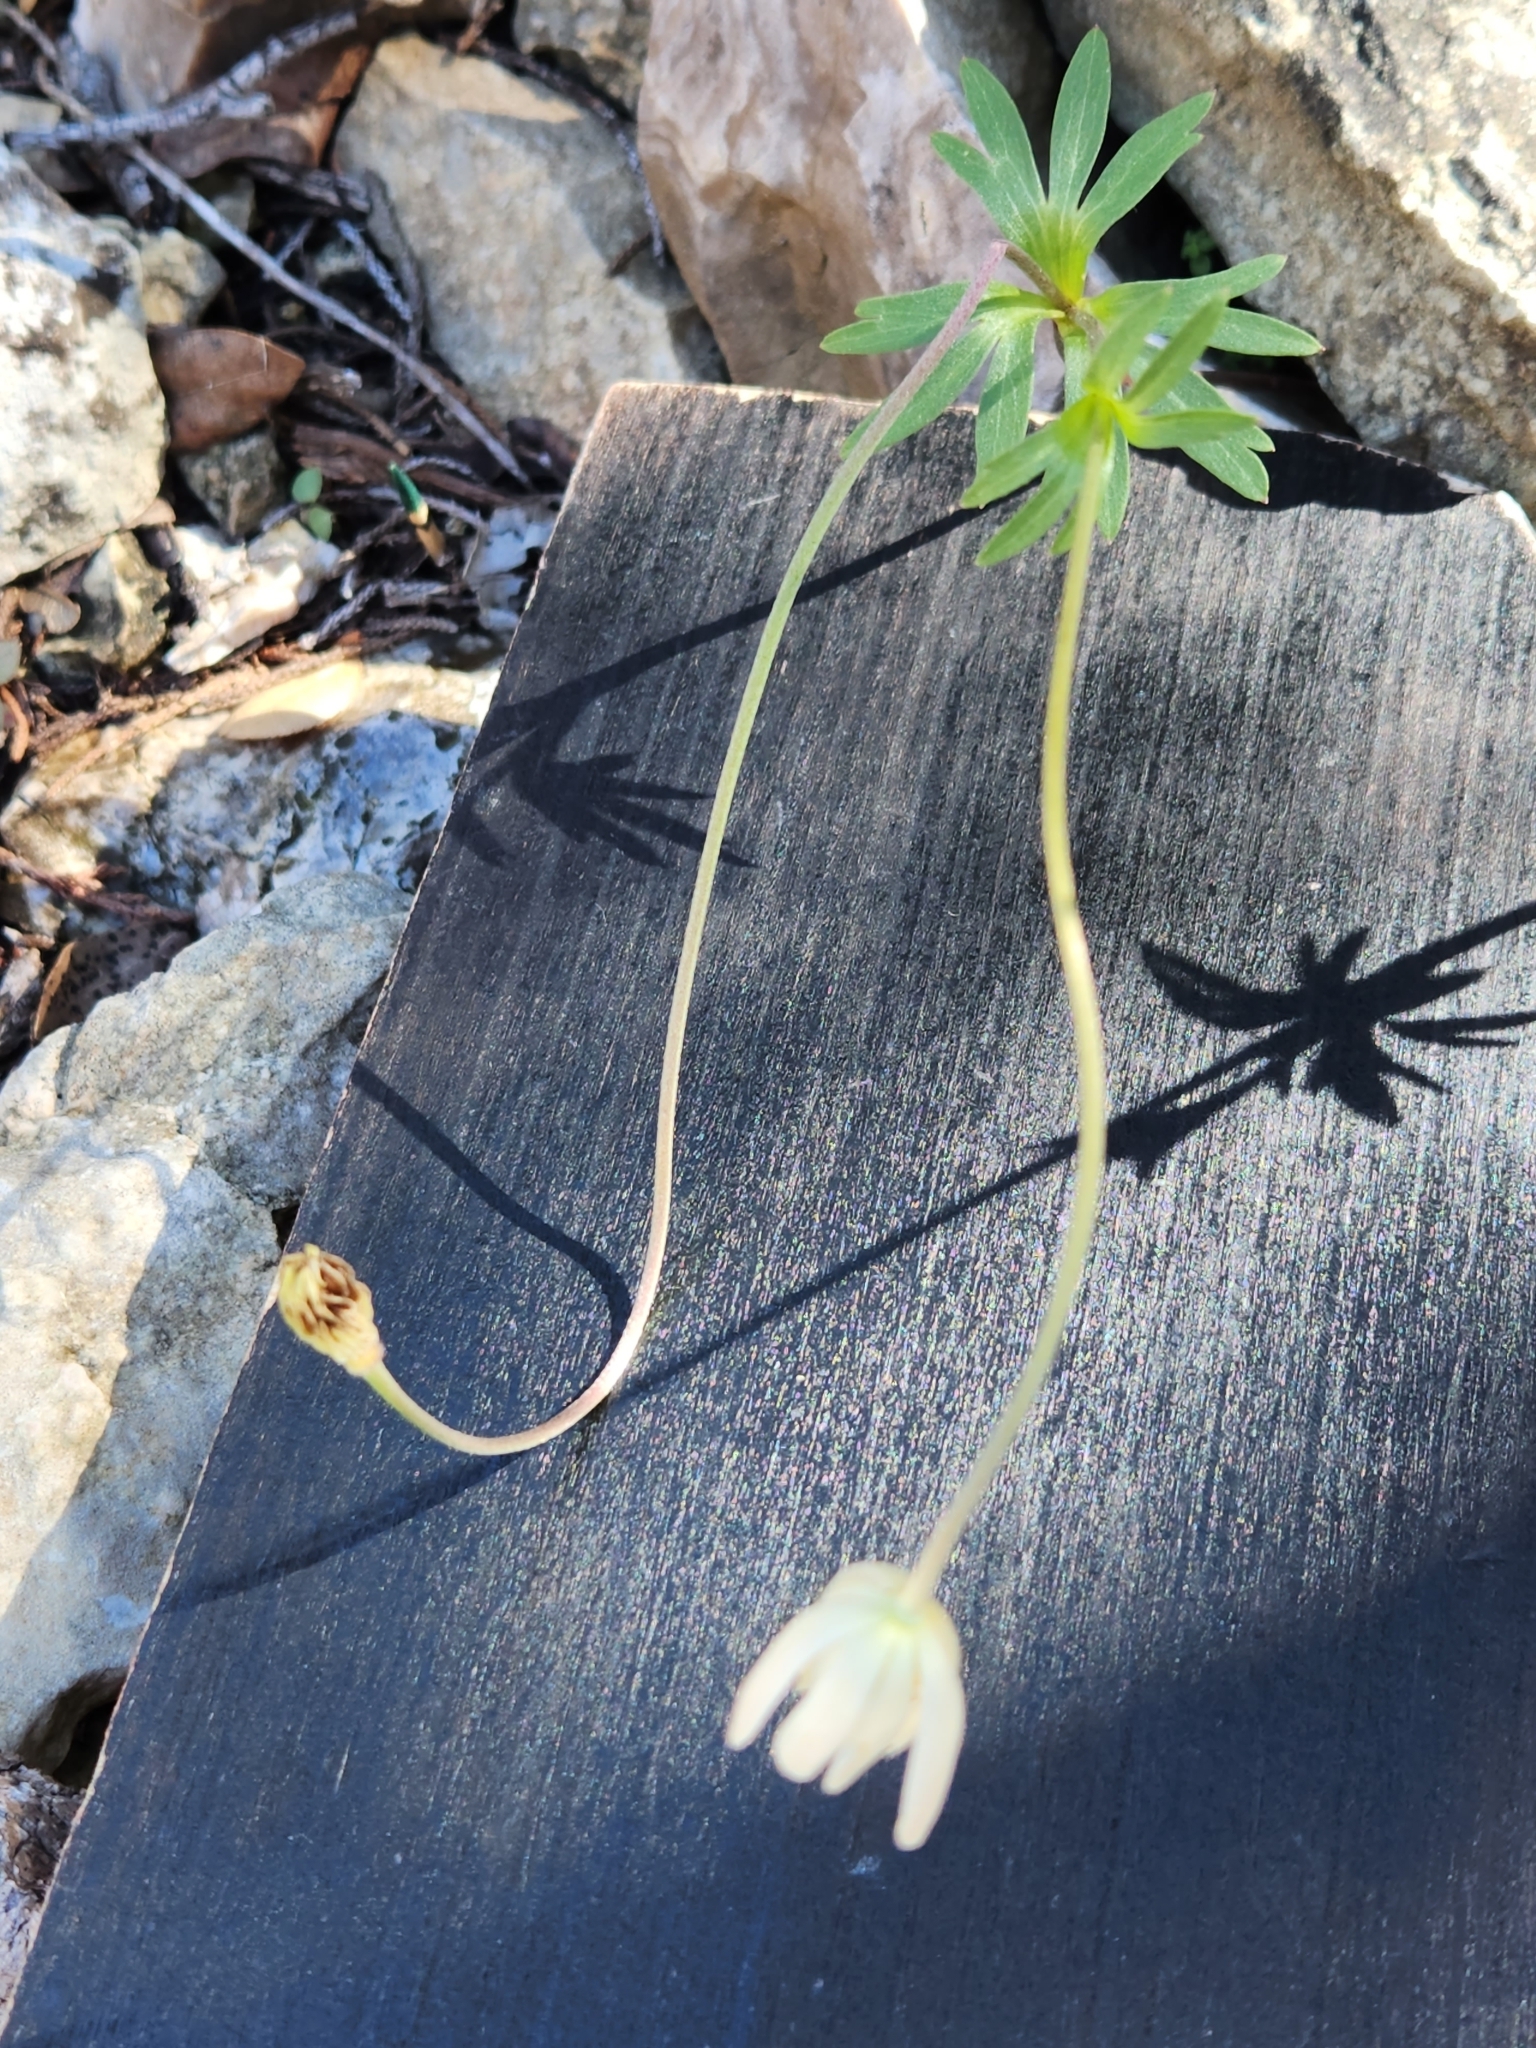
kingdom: Plantae
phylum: Tracheophyta
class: Magnoliopsida
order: Ranunculales
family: Ranunculaceae
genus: Anemone
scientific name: Anemone edwardsiana
